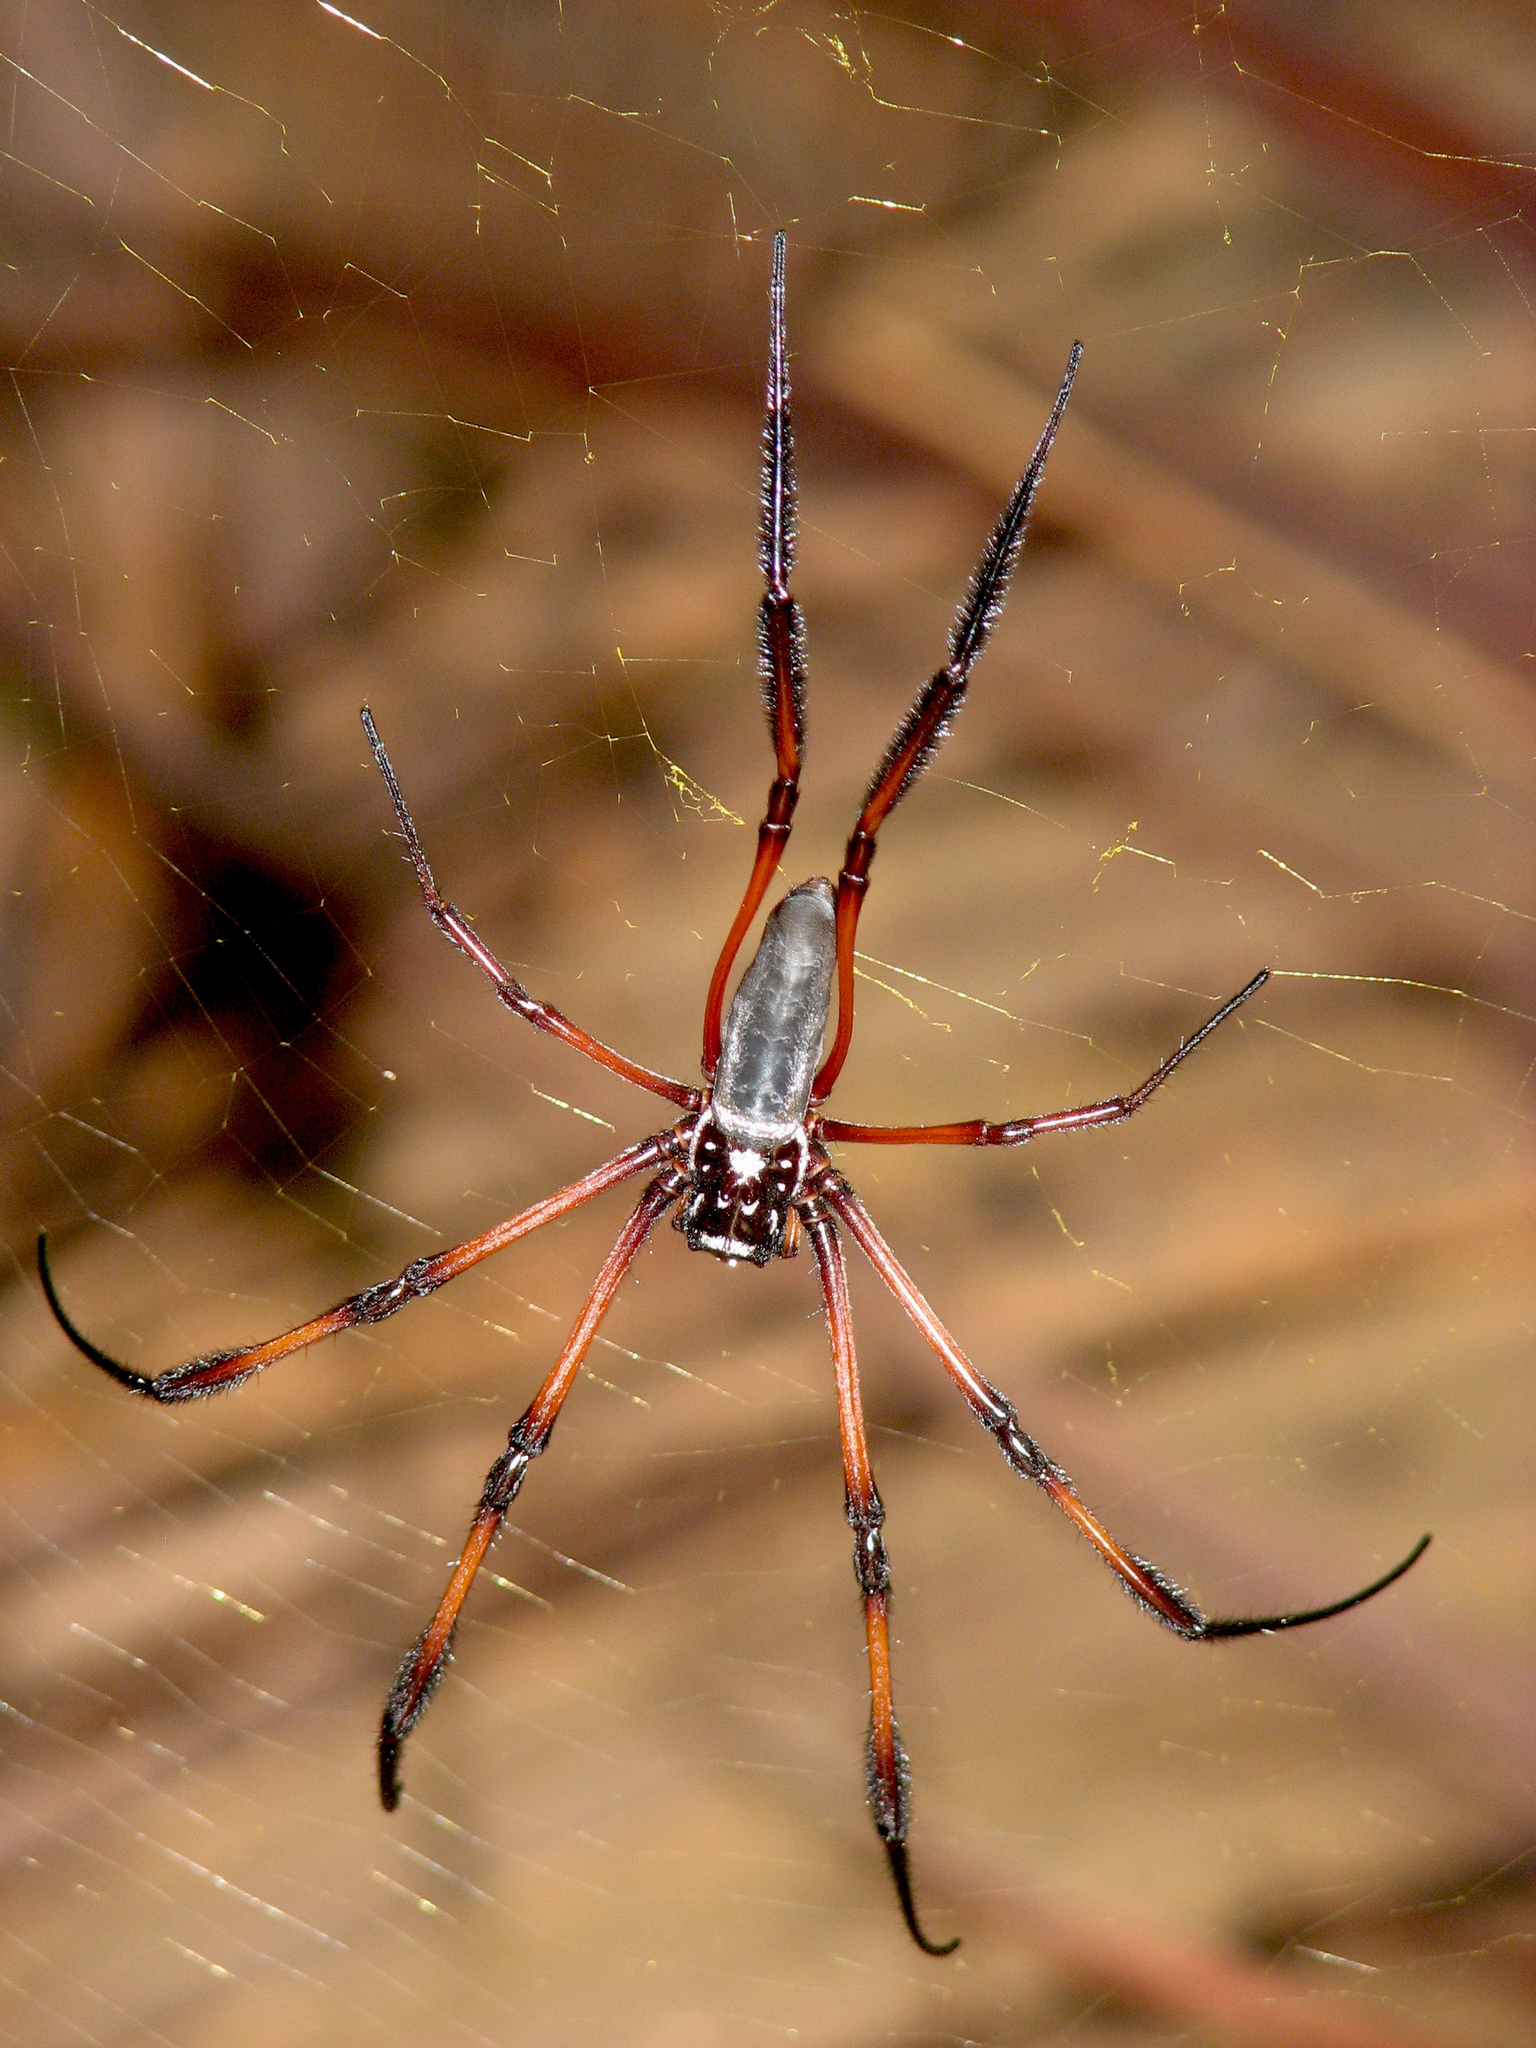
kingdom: Animalia
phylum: Arthropoda
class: Arachnida
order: Araneae
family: Araneidae
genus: Trichonephila
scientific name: Trichonephila inaurata
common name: Red-legged golden orb weaver
